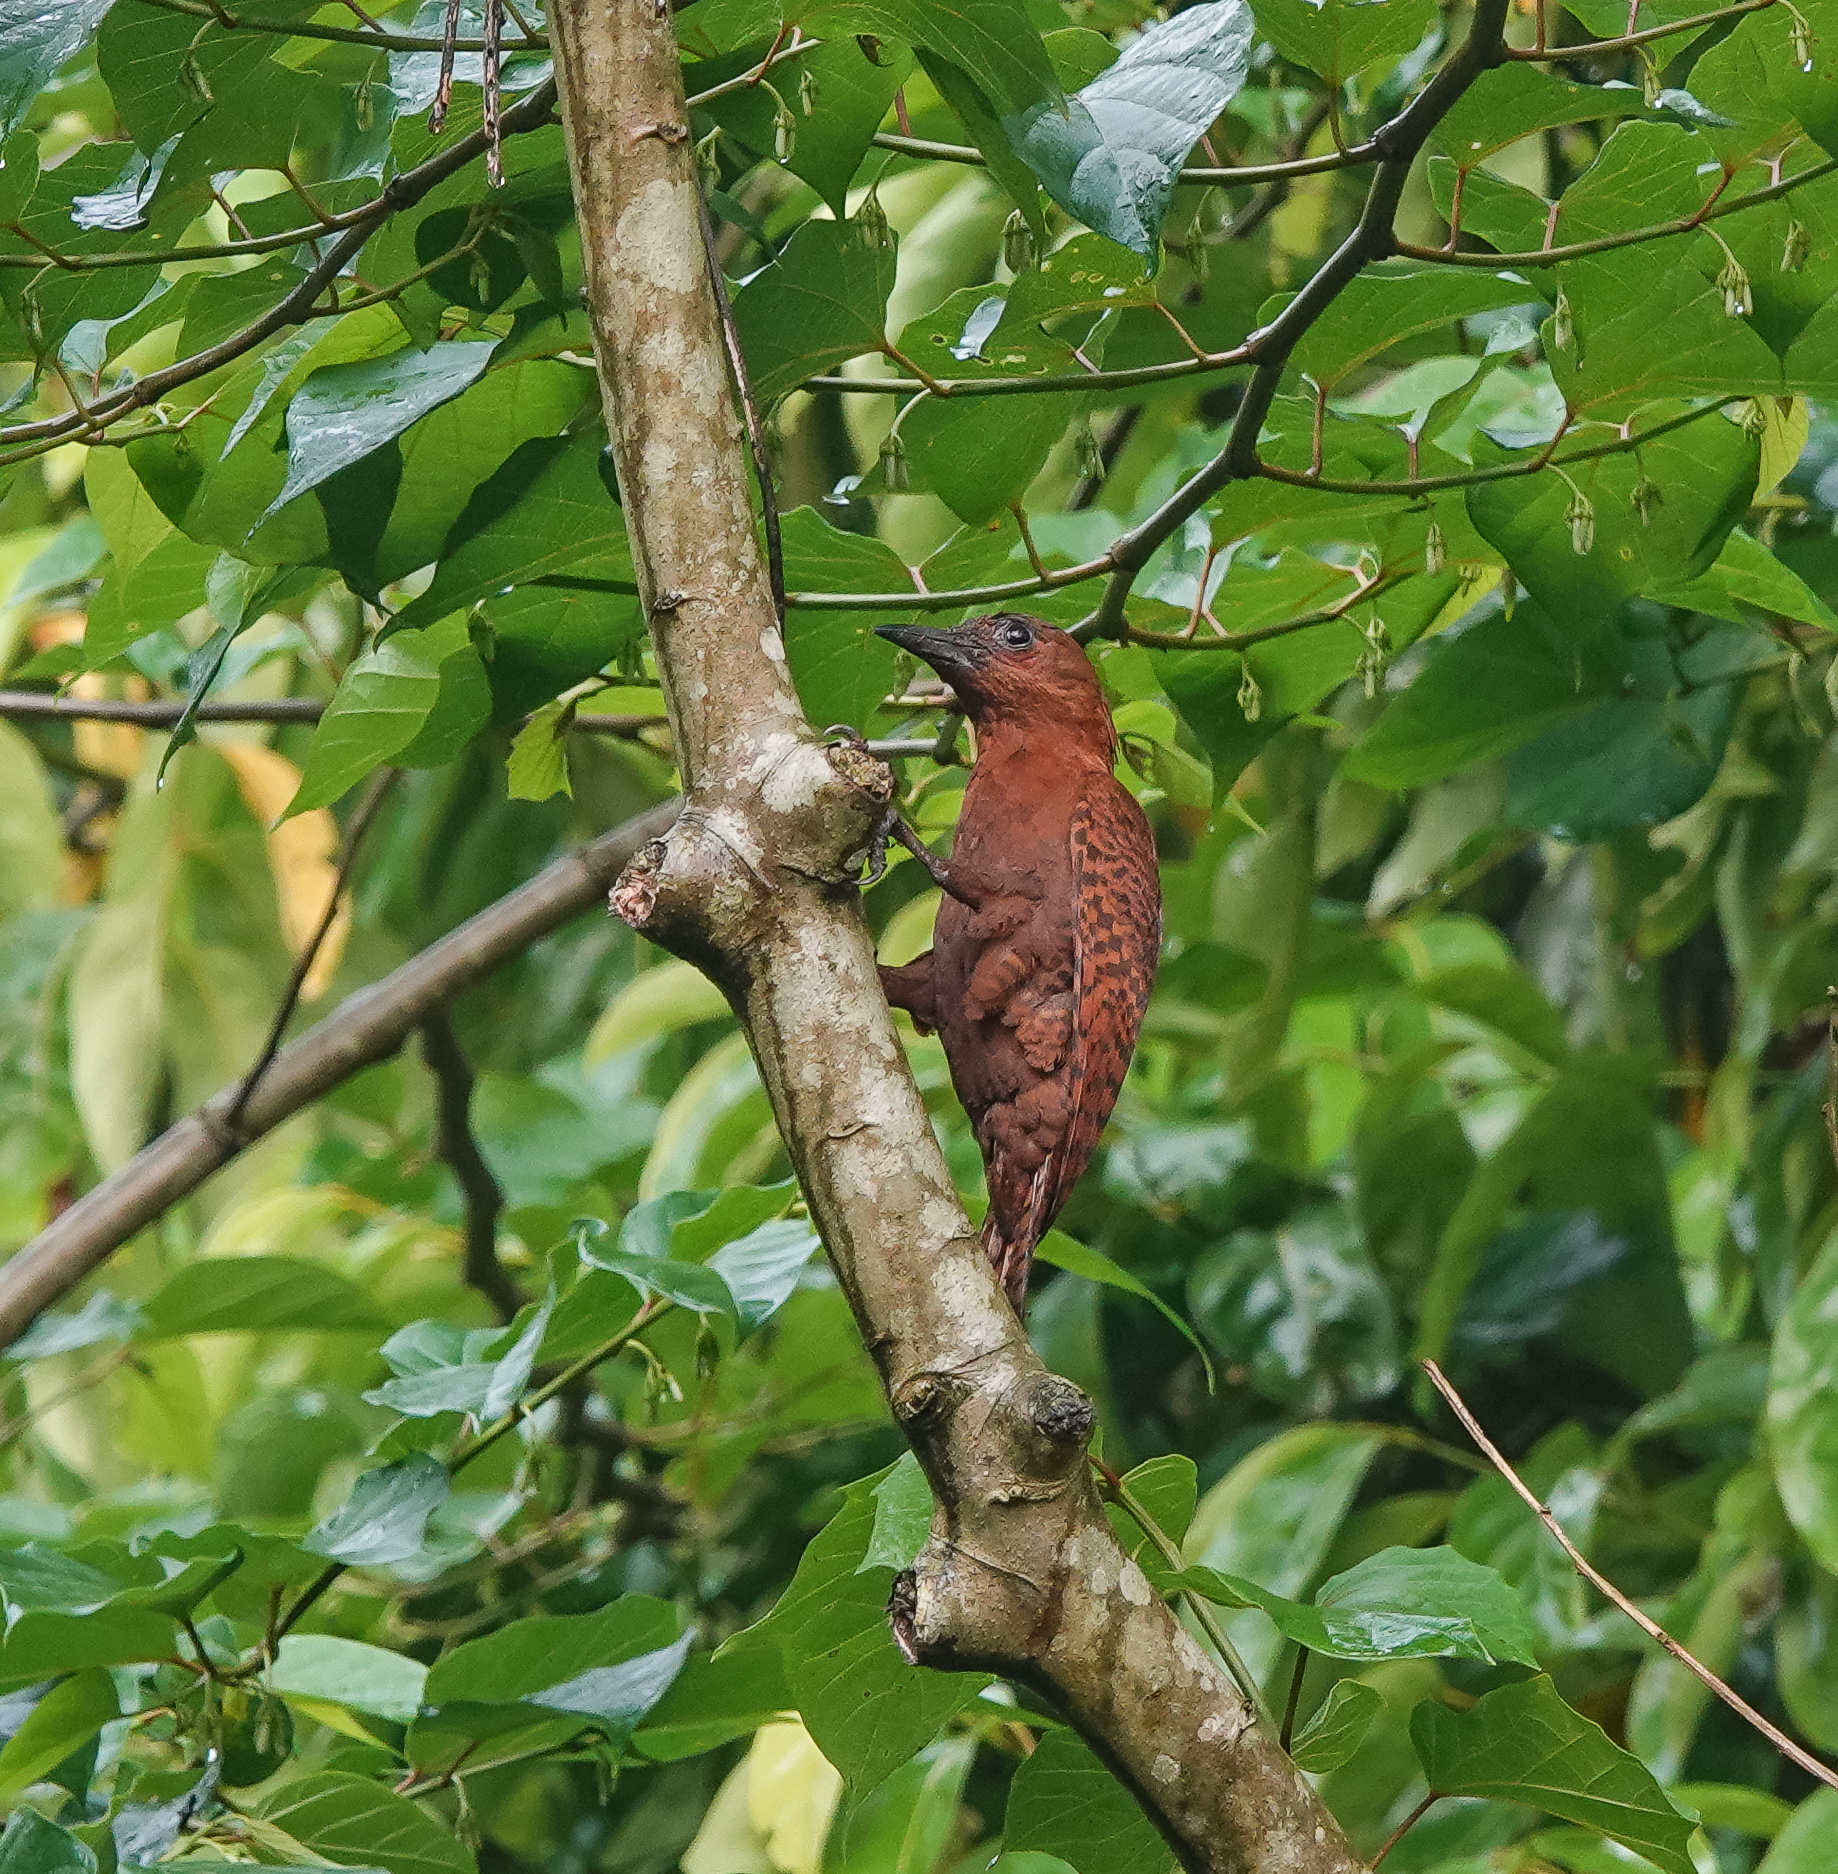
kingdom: Animalia
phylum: Chordata
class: Aves
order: Piciformes
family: Picidae
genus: Micropternus
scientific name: Micropternus brachyurus
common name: Rufous woodpecker
